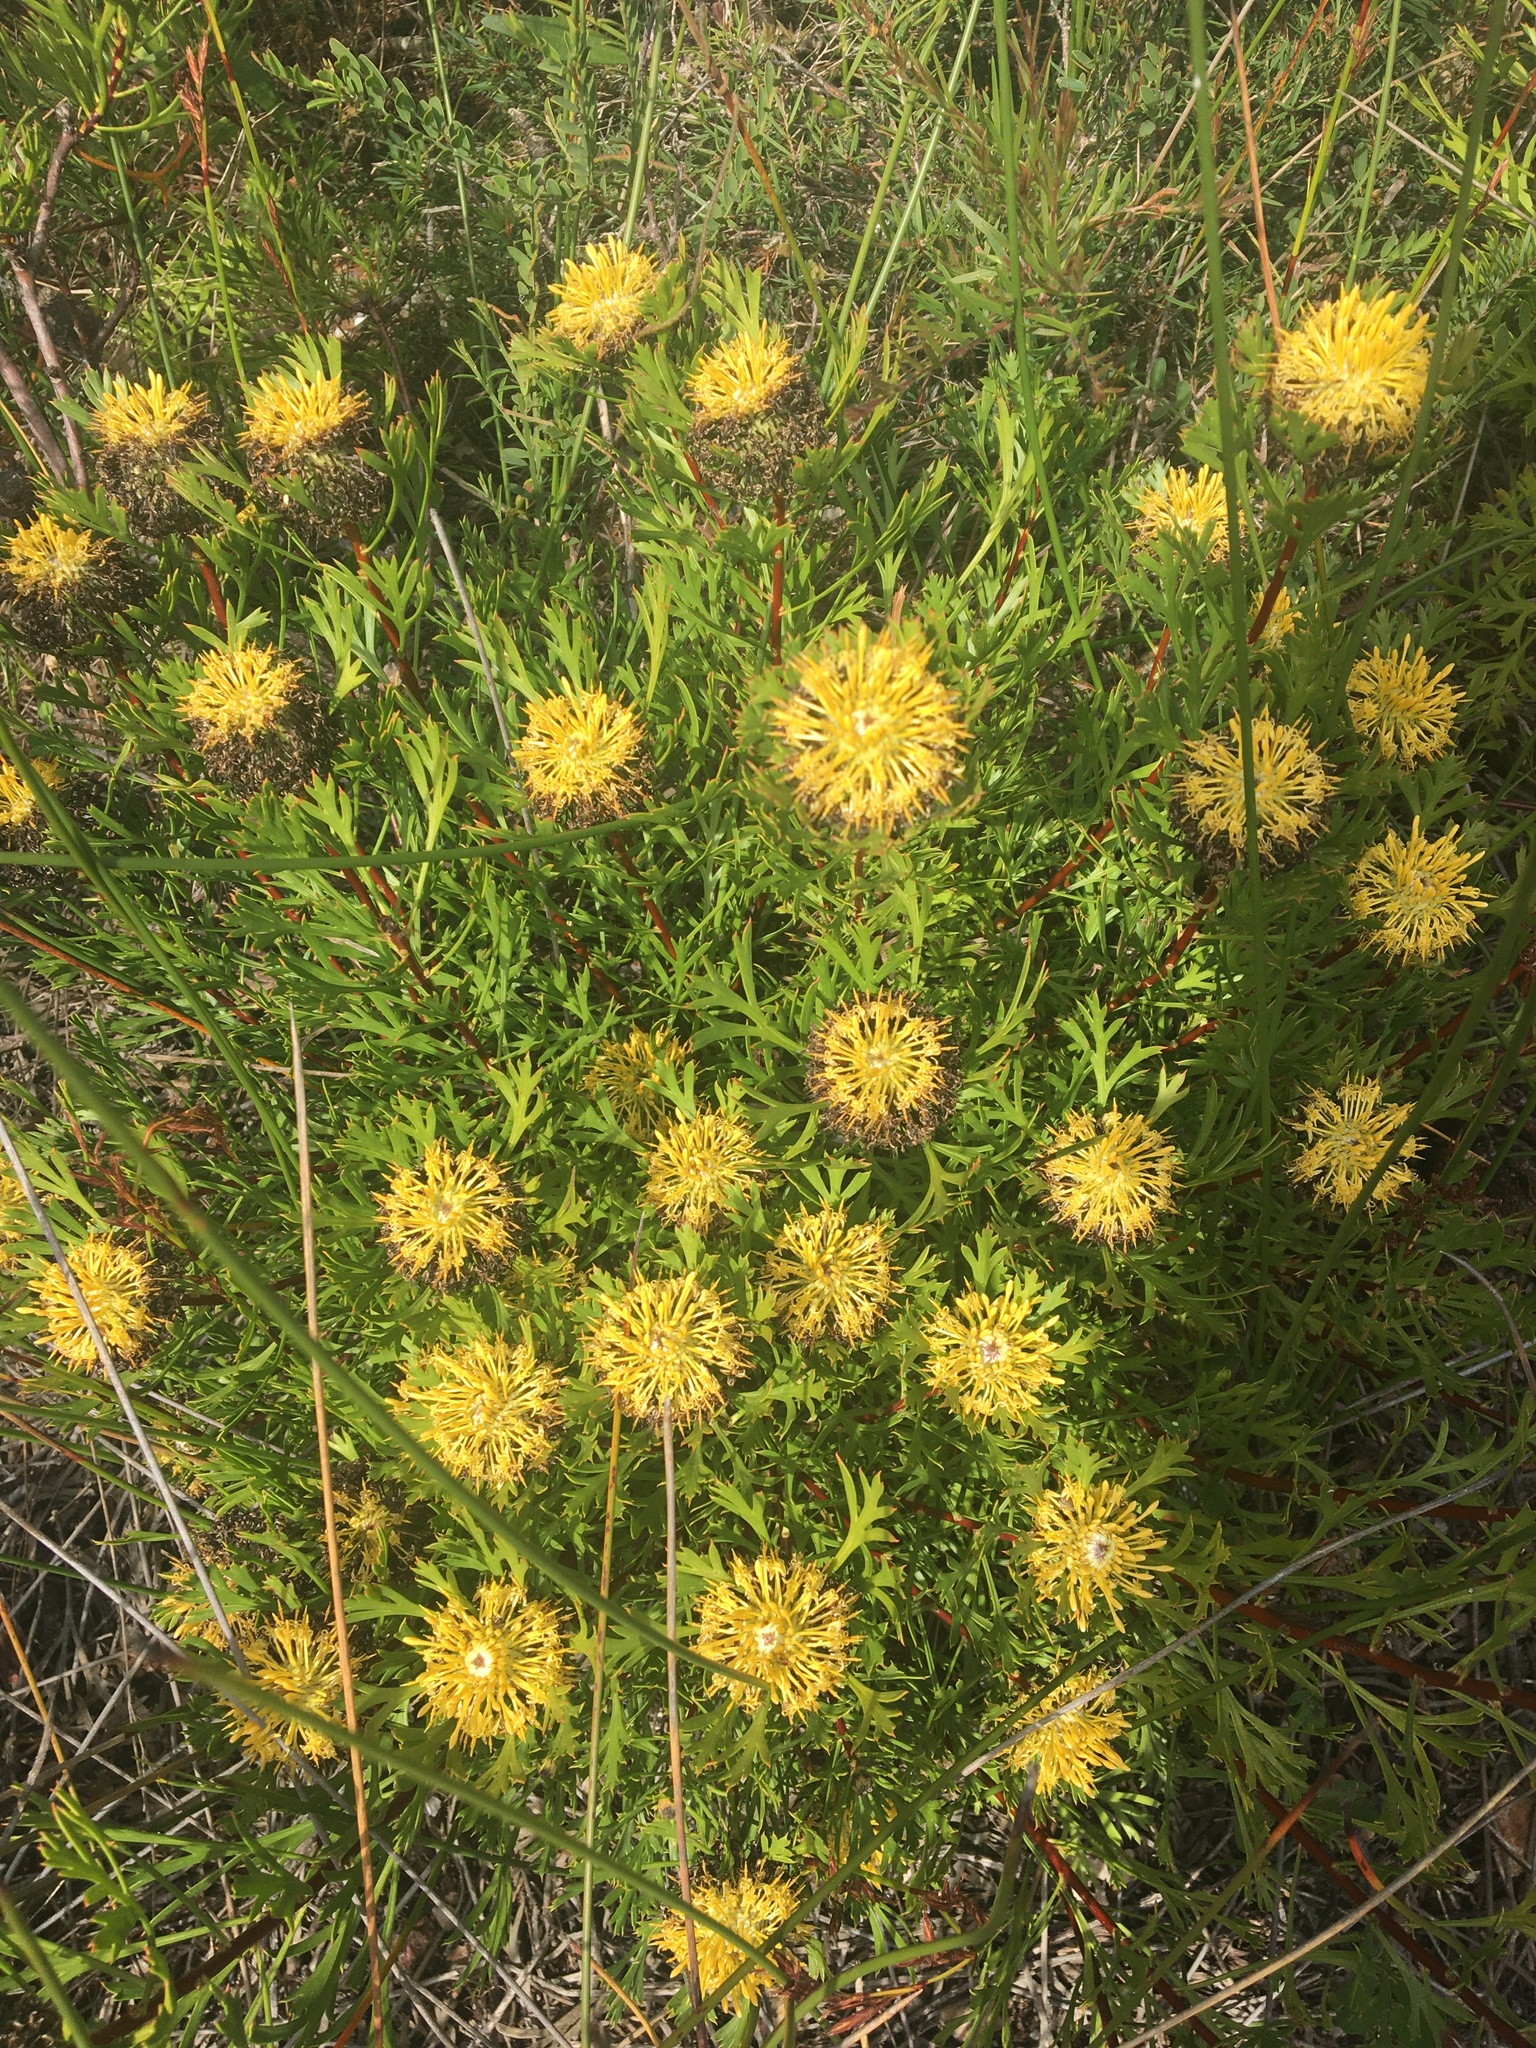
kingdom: Plantae
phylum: Tracheophyta
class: Magnoliopsida
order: Proteales
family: Proteaceae
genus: Isopogon
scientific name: Isopogon anemonifolius
